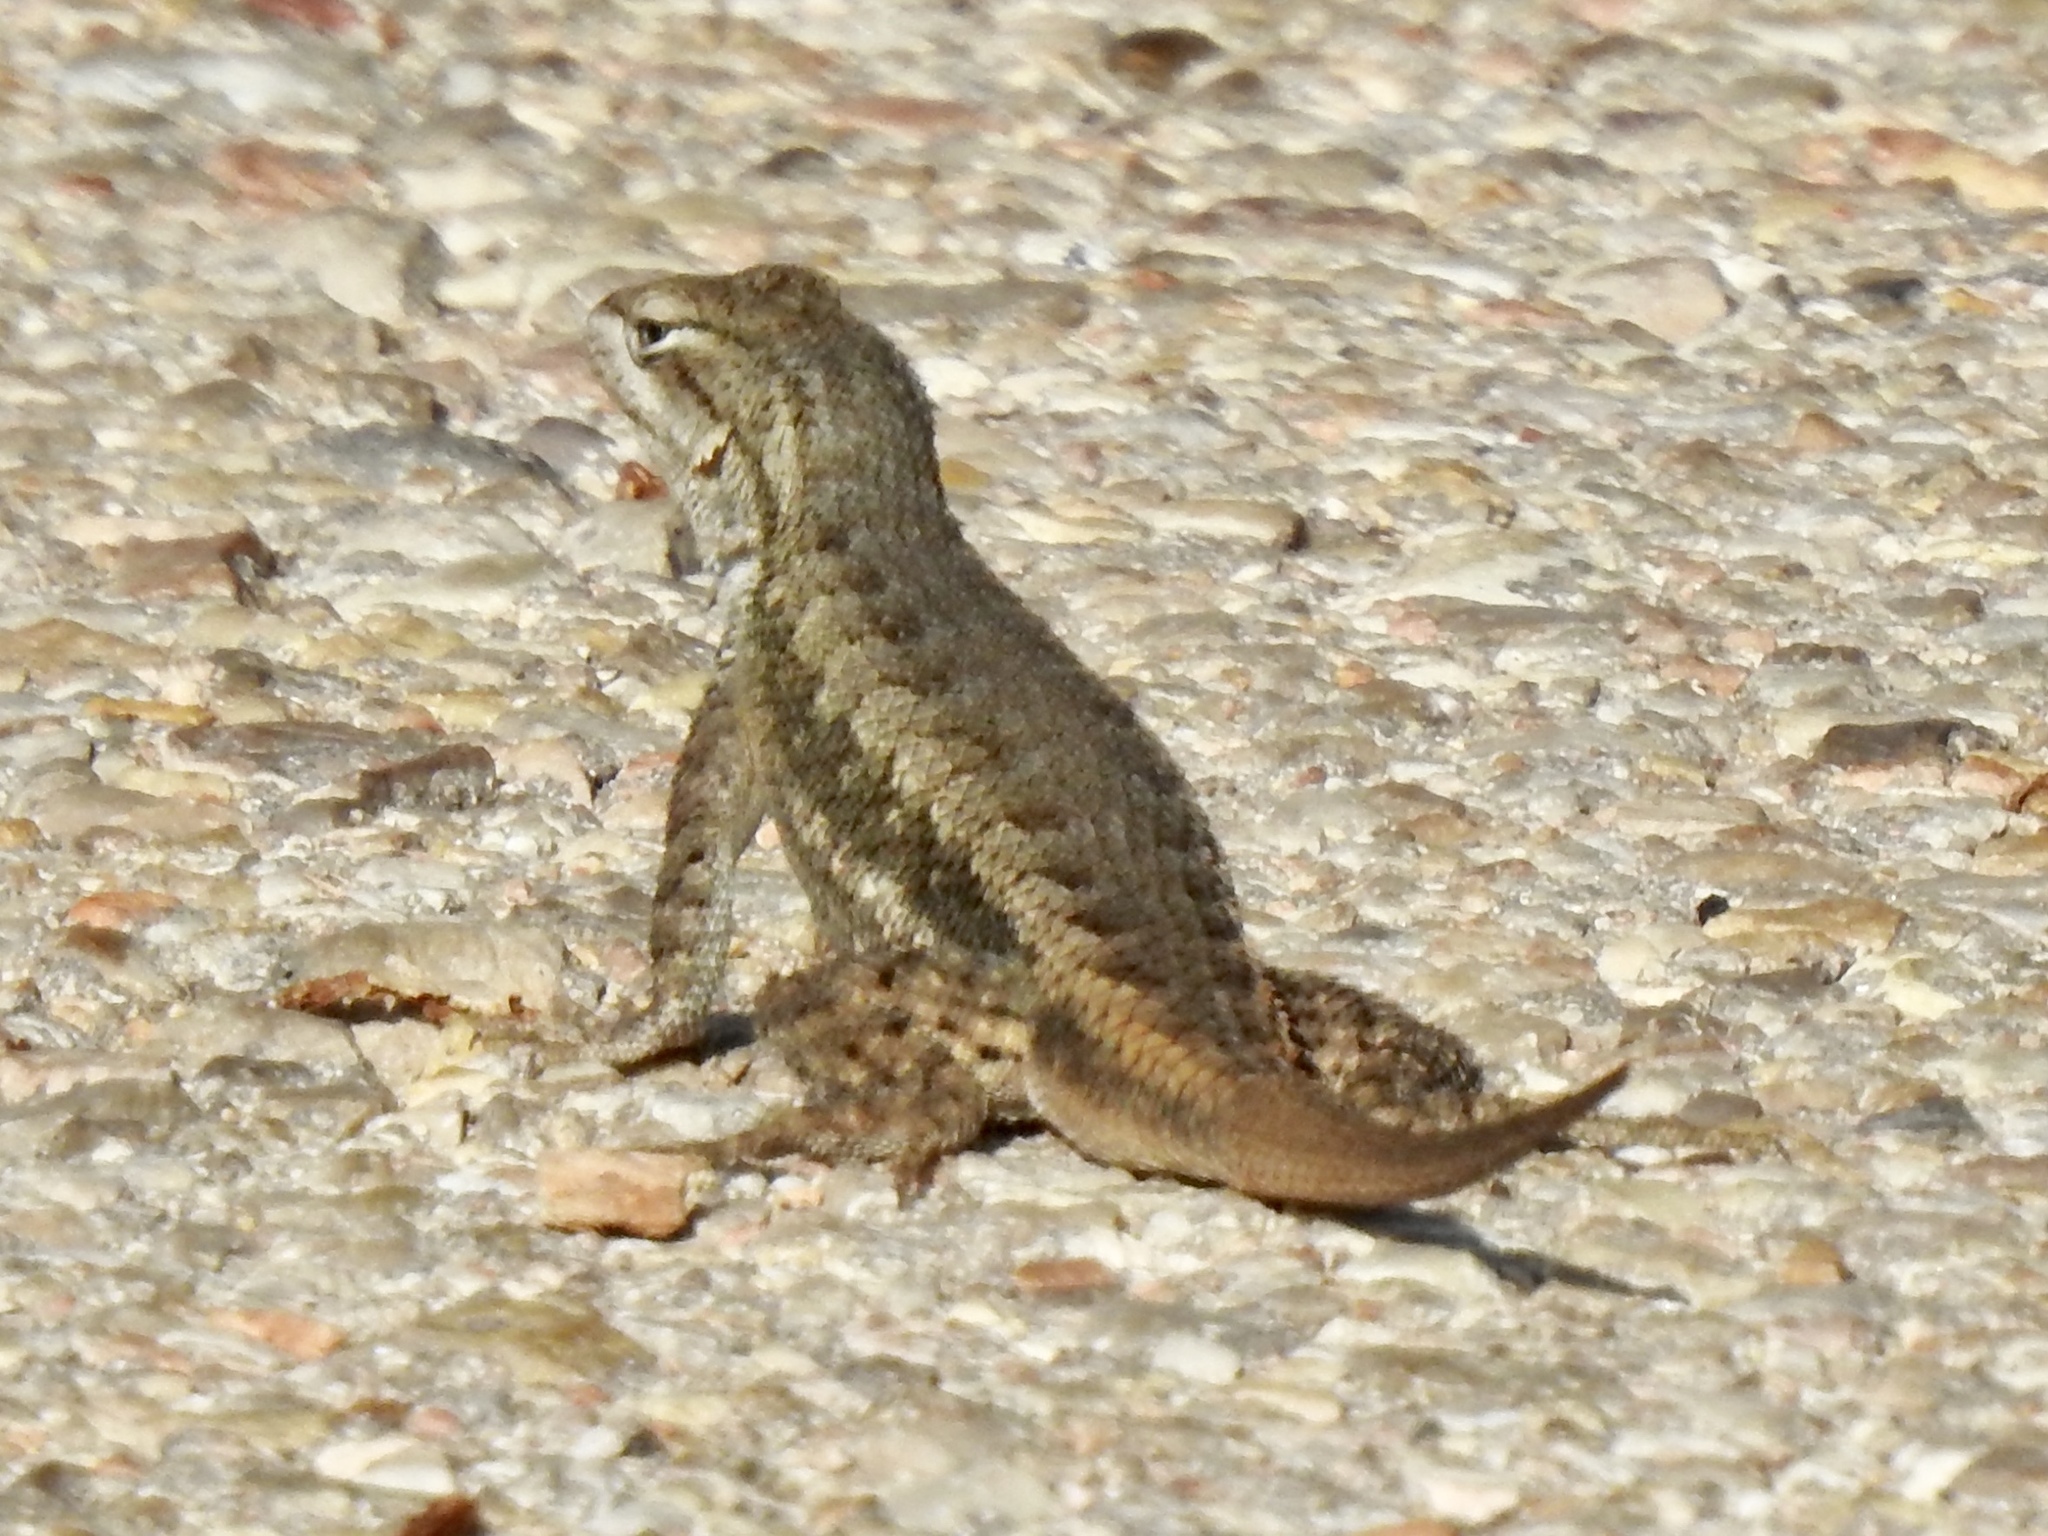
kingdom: Animalia
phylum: Chordata
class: Squamata
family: Phrynosomatidae
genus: Sceloporus
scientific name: Sceloporus cowlesi
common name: White sands prairie lizard
